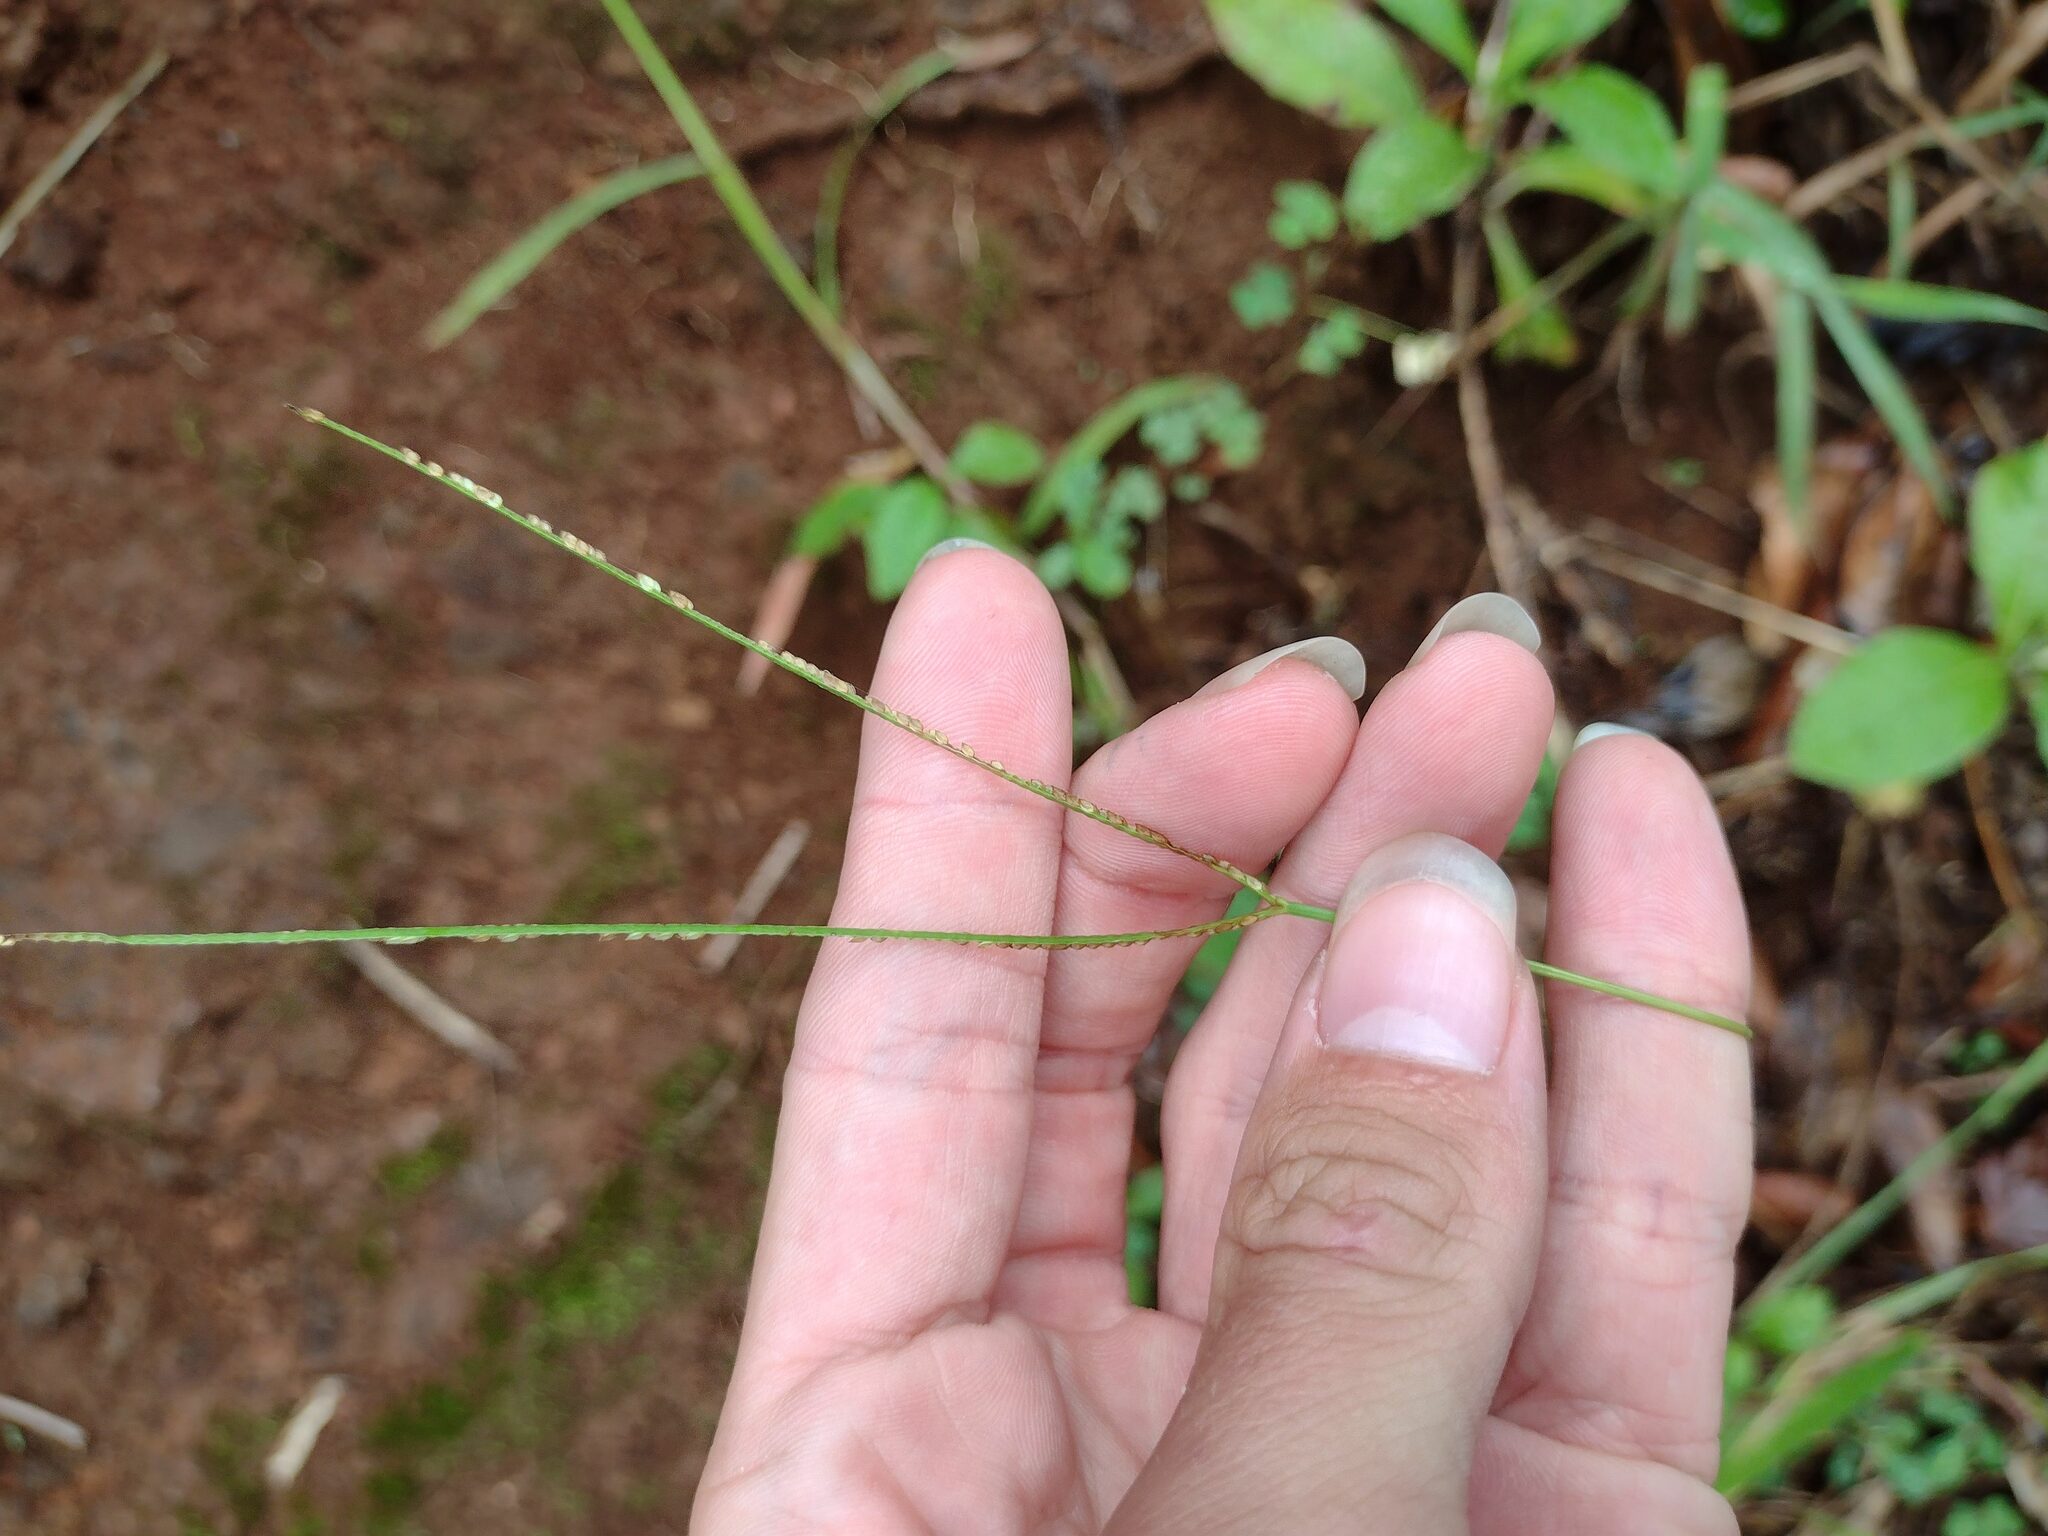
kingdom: Plantae
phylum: Tracheophyta
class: Liliopsida
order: Poales
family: Poaceae
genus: Paspalum
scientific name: Paspalum conjugatum
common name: Hilograss
